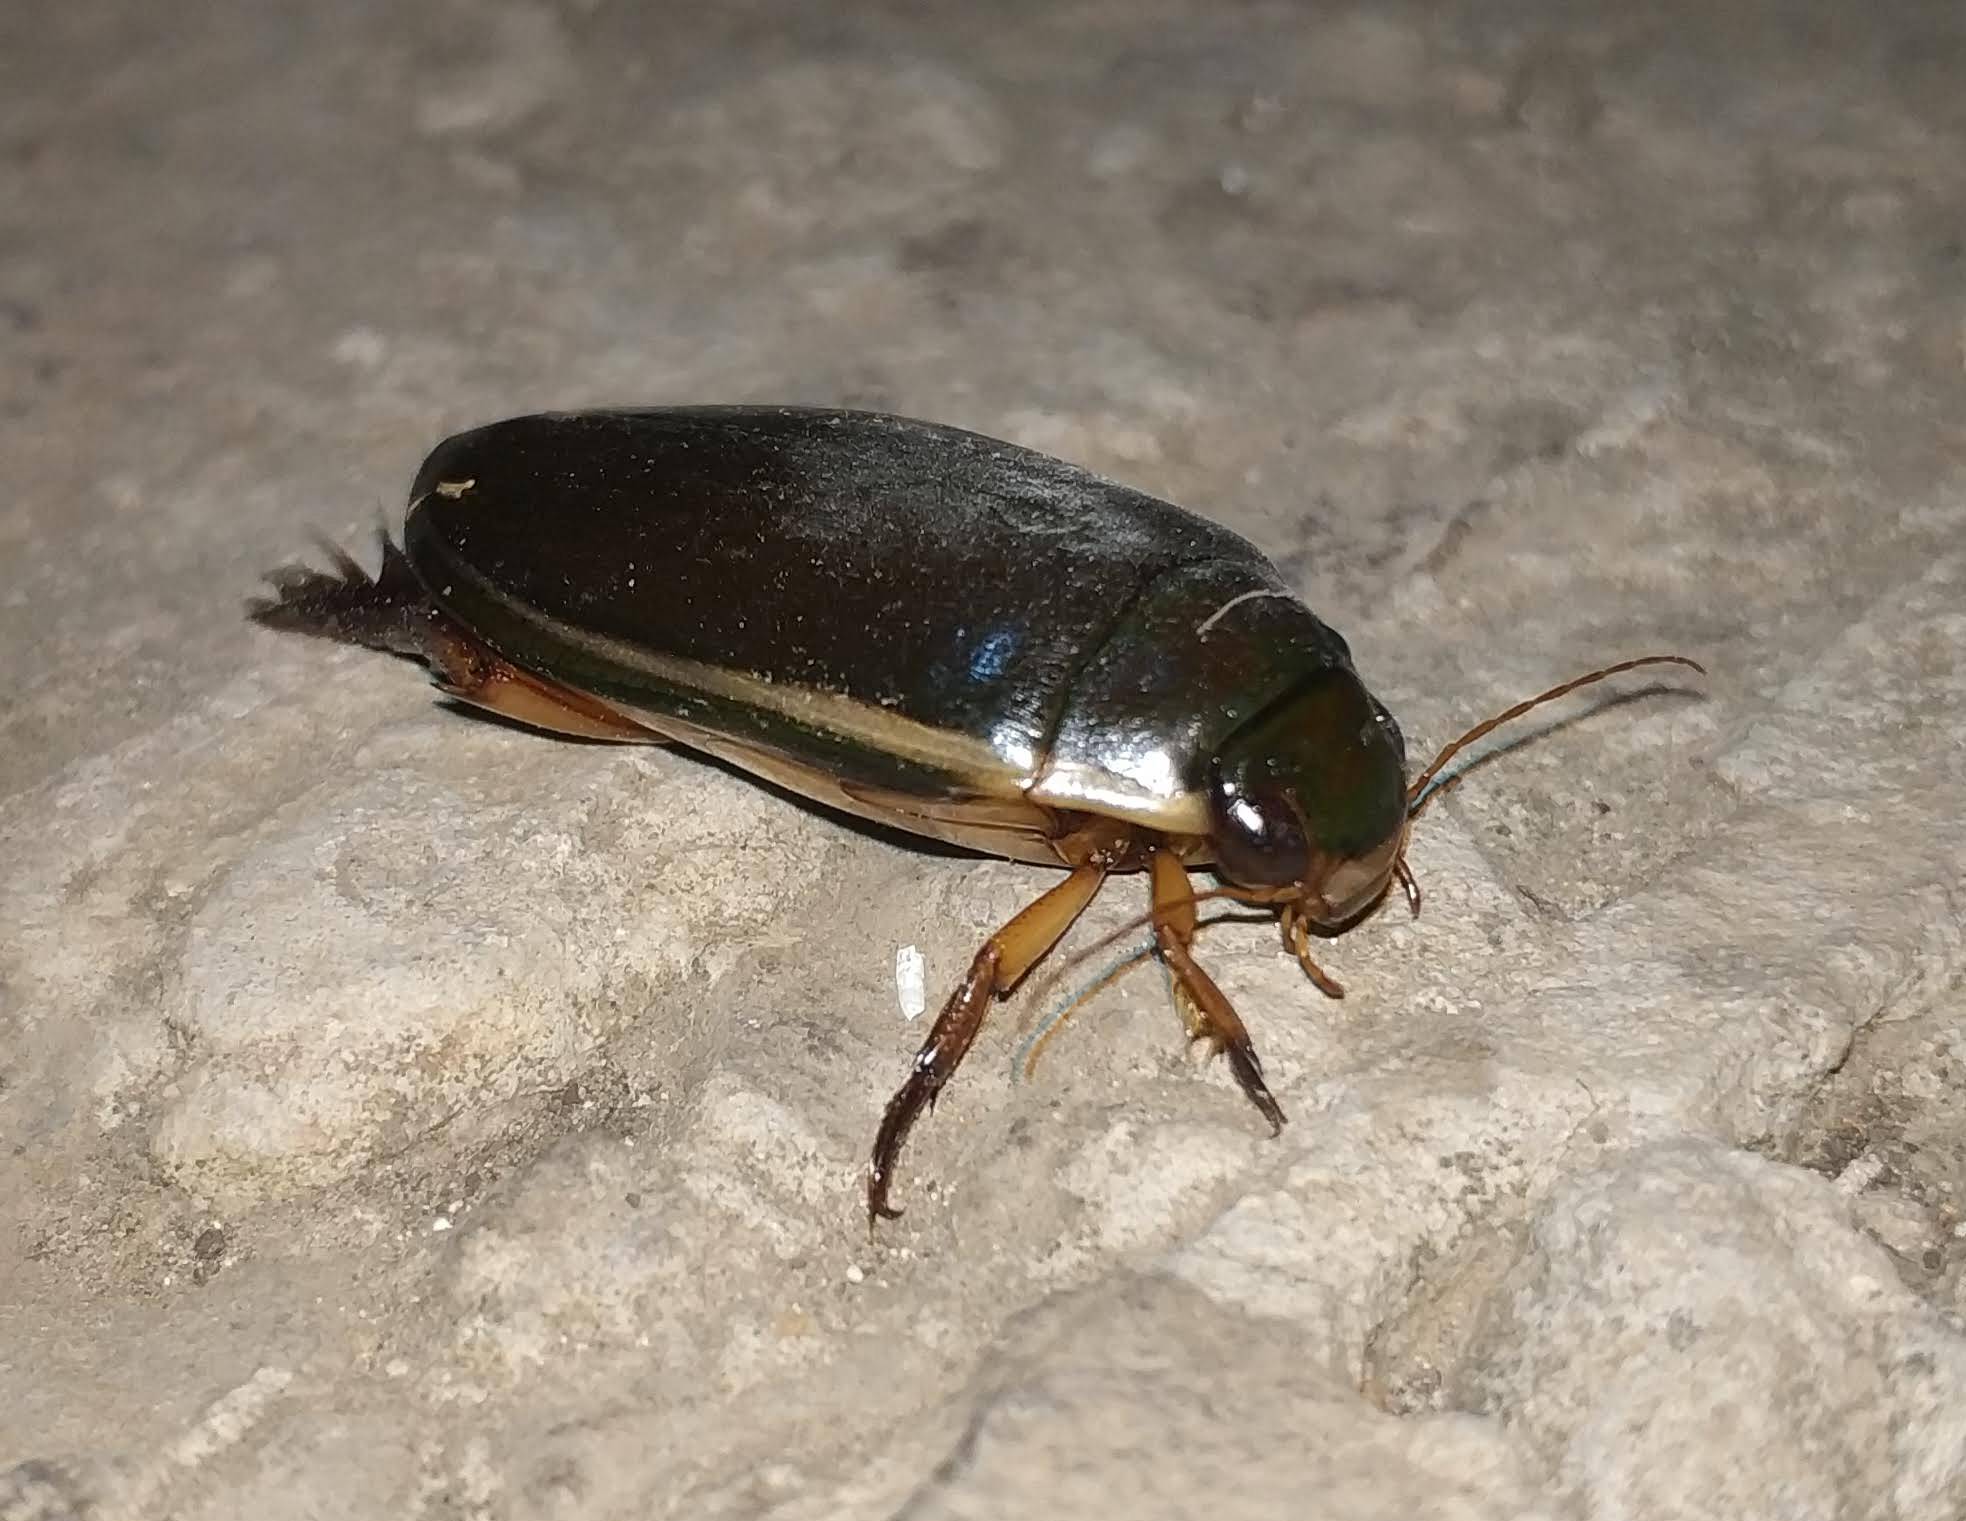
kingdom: Animalia
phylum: Arthropoda
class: Insecta
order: Coleoptera
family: Dytiscidae
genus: Cybister
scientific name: Cybister lateralimarginalis
